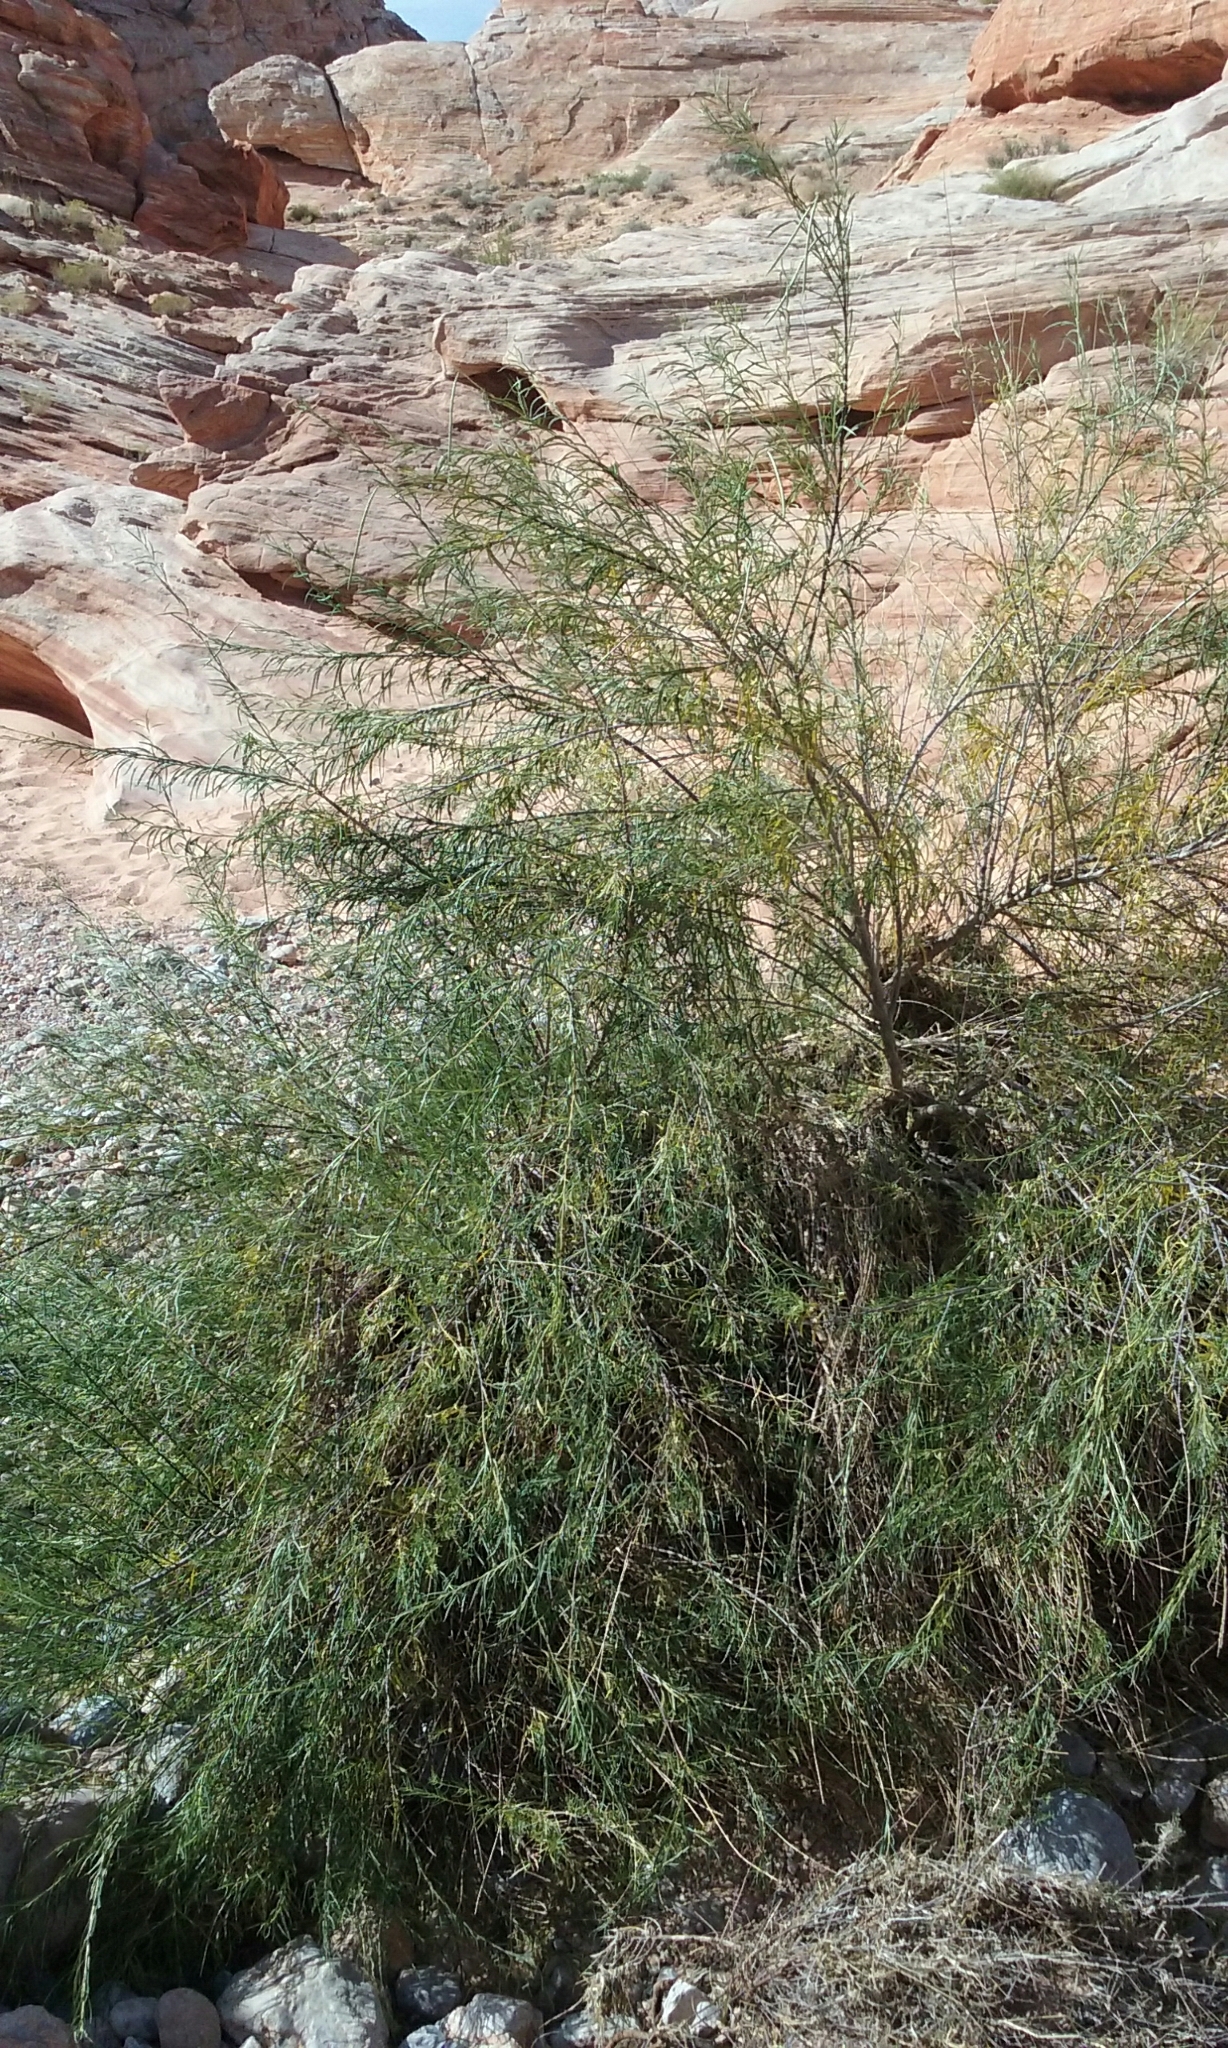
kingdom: Plantae
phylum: Tracheophyta
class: Magnoliopsida
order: Lamiales
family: Bignoniaceae
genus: Chilopsis
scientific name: Chilopsis linearis
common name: Desert-willow
